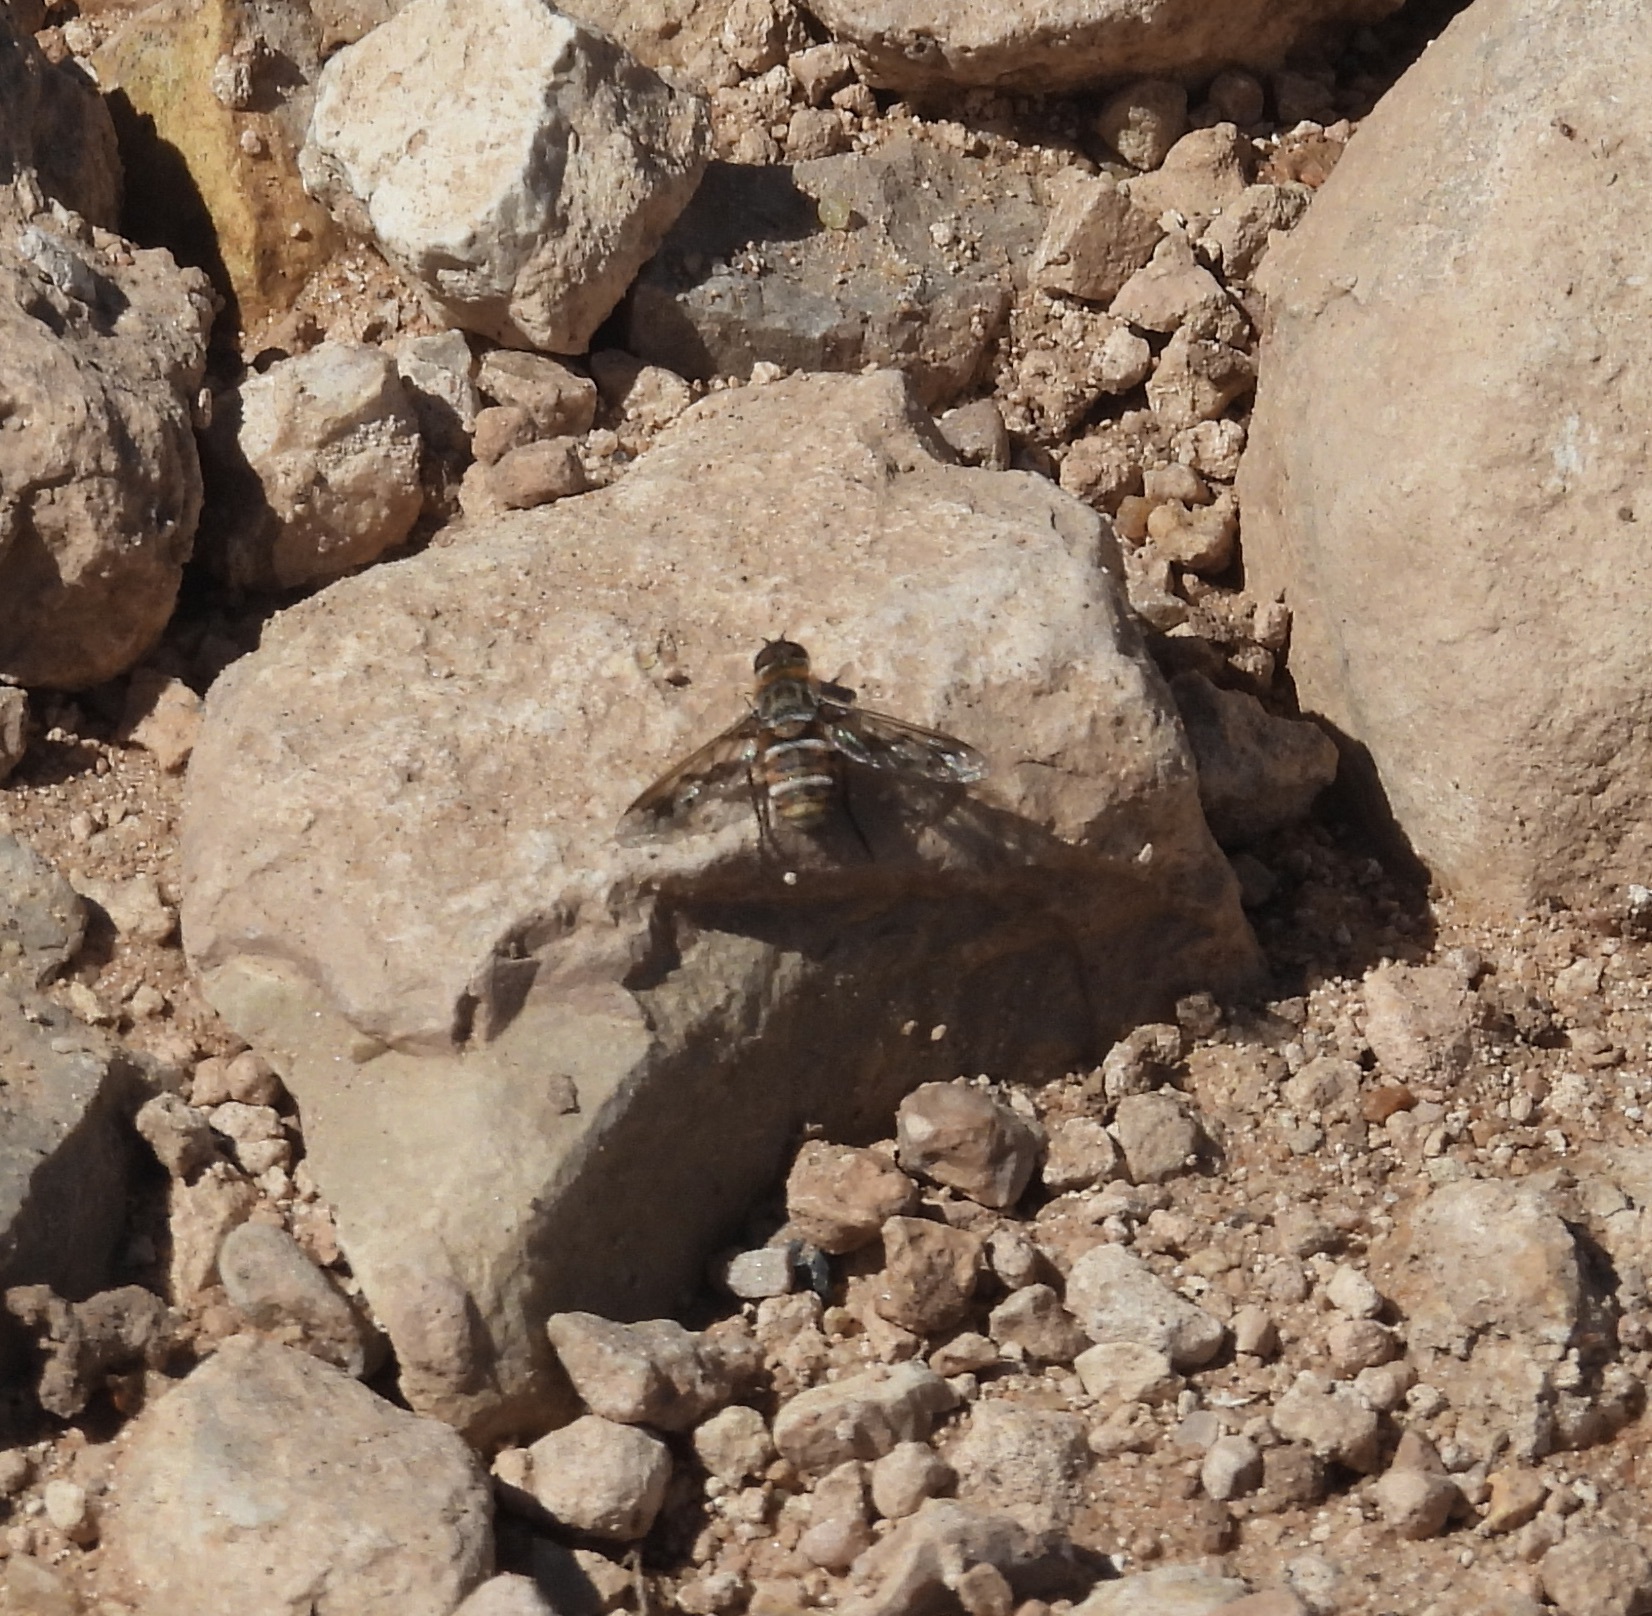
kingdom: Animalia
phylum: Arthropoda
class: Insecta
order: Diptera
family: Bombyliidae
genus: Exoprosopa
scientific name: Exoprosopa butleri
